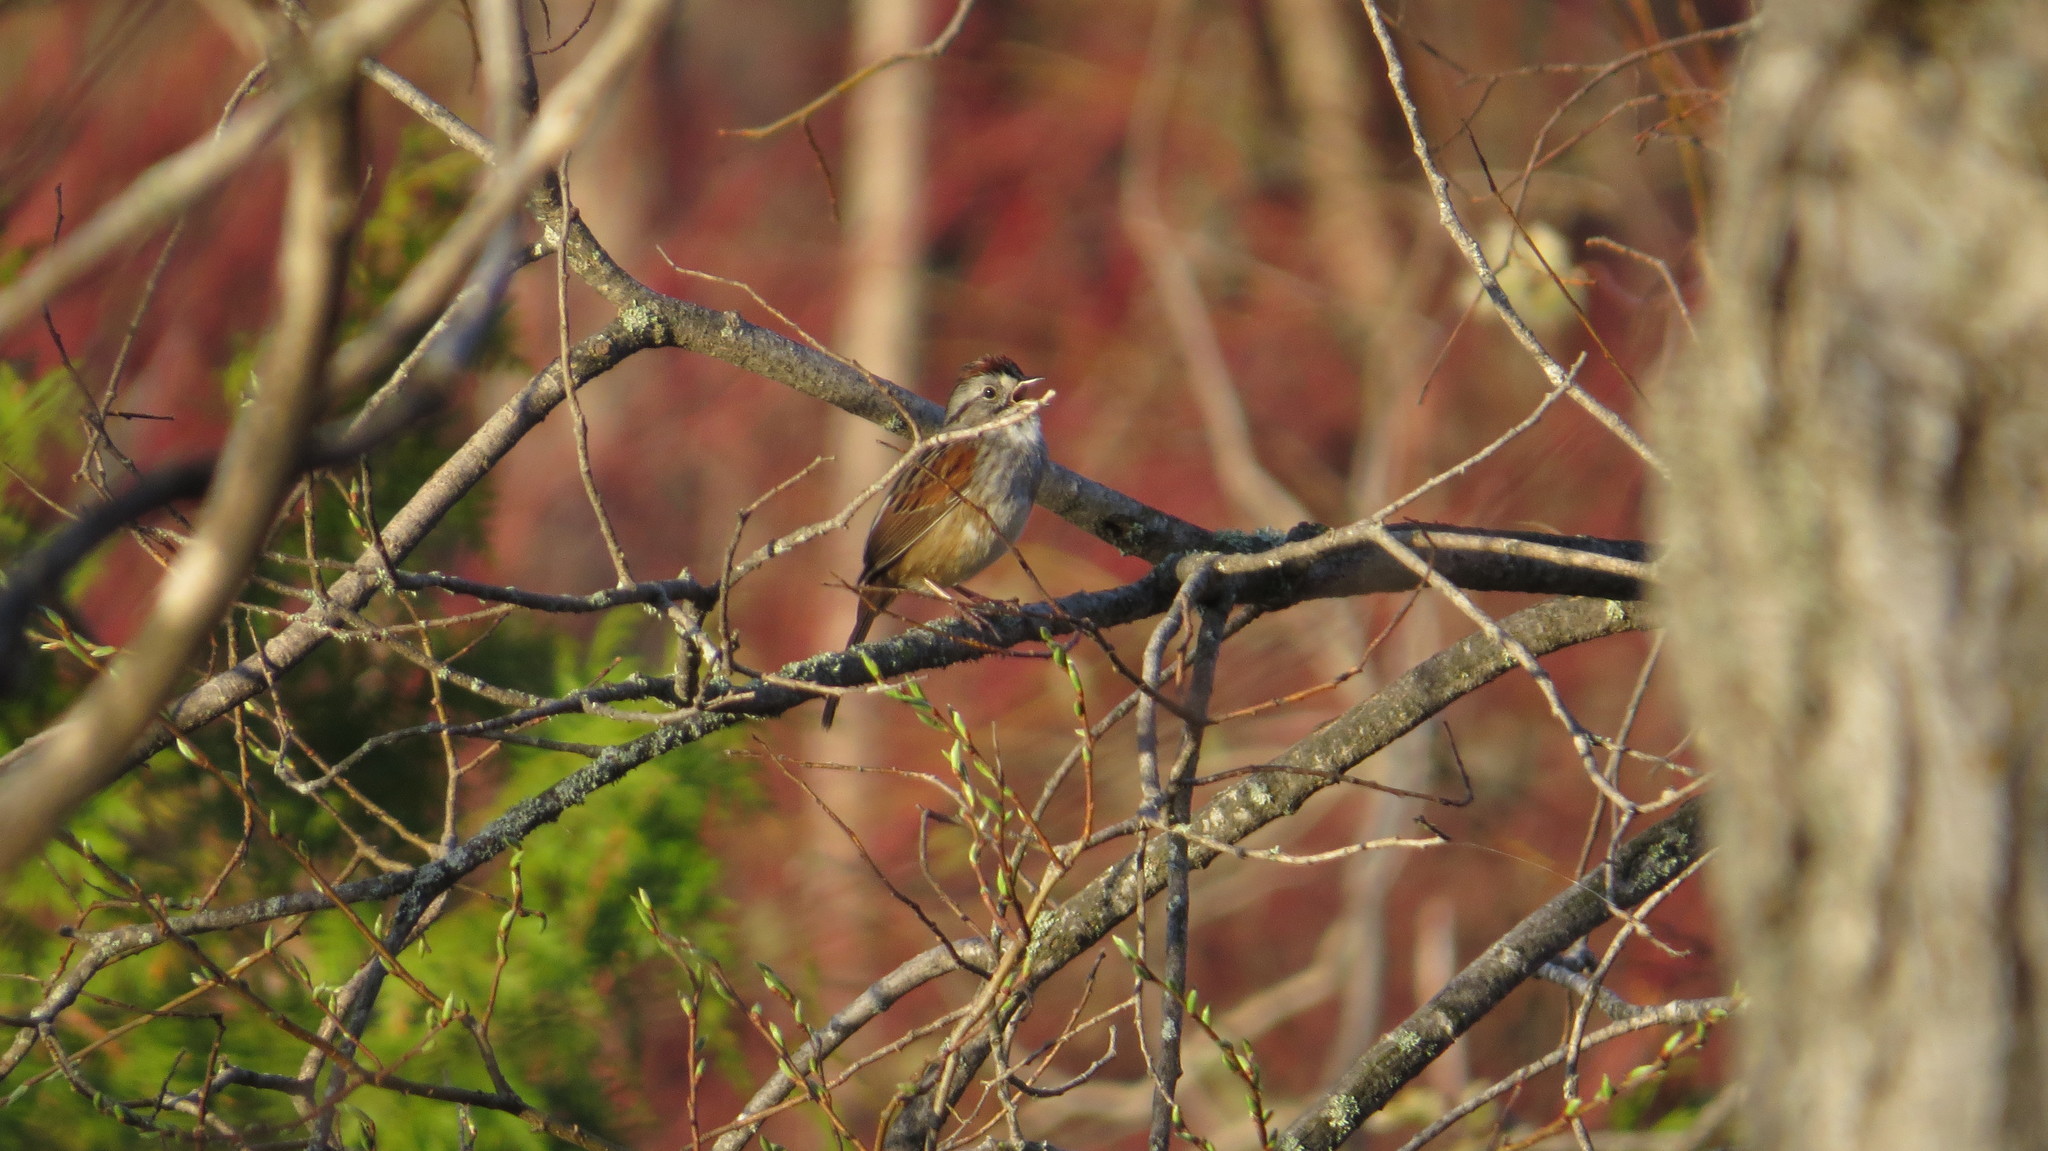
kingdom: Animalia
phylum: Chordata
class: Aves
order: Passeriformes
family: Passerellidae
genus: Melospiza
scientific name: Melospiza georgiana
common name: Swamp sparrow
